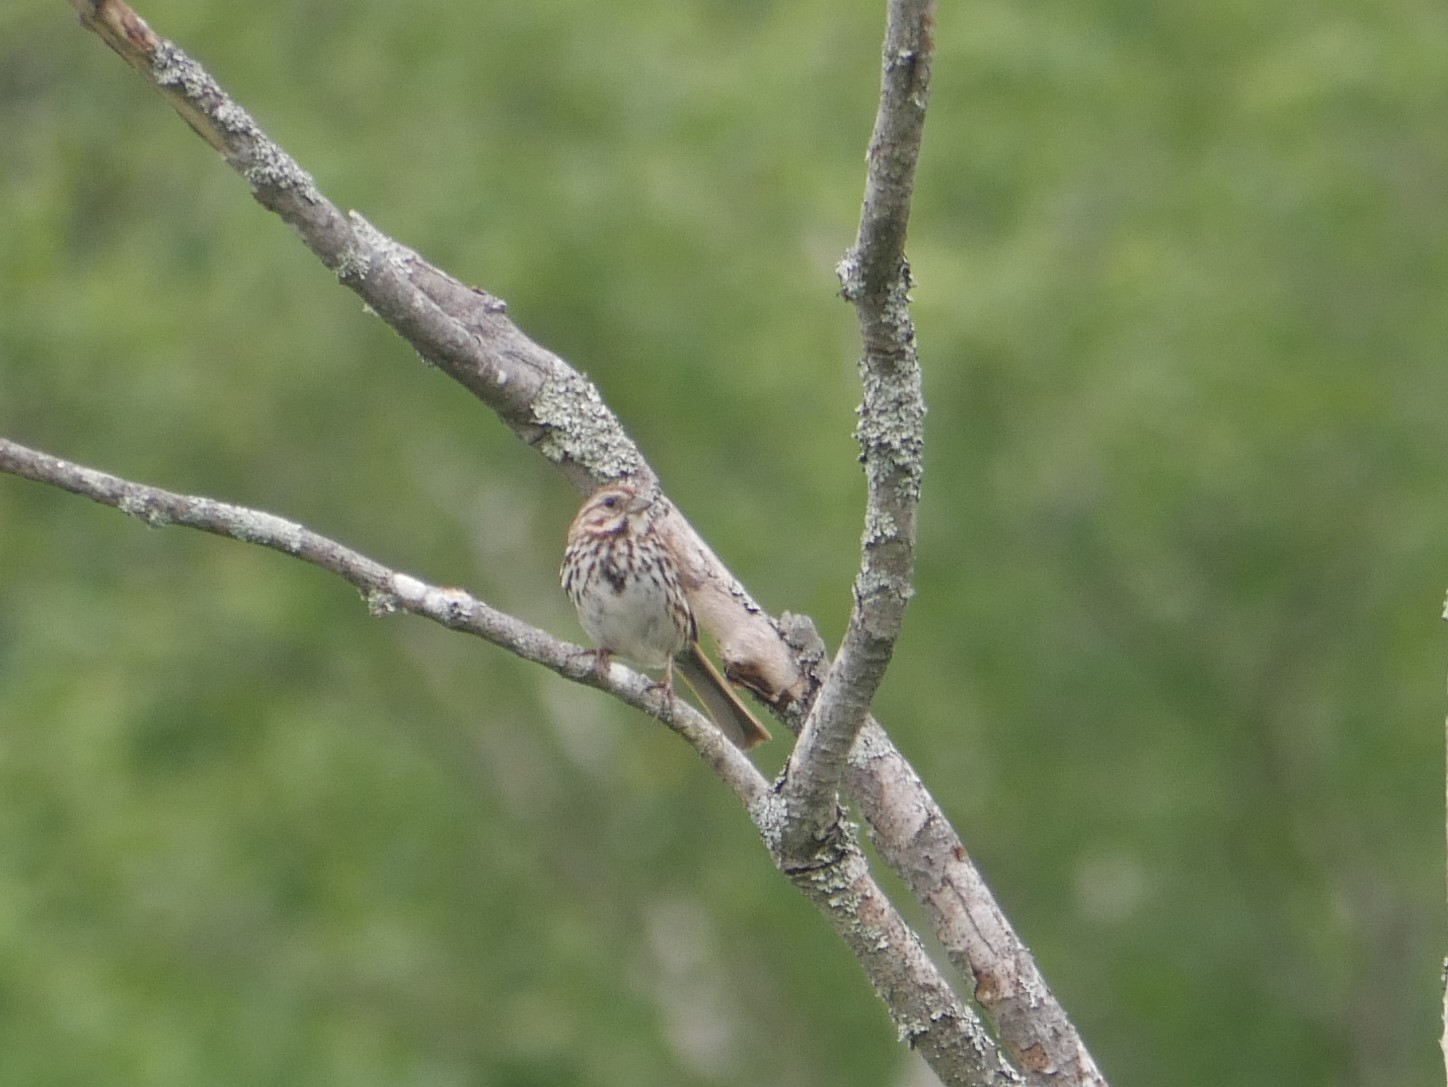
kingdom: Animalia
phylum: Chordata
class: Aves
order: Passeriformes
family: Passerellidae
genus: Melospiza
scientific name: Melospiza melodia
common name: Song sparrow
